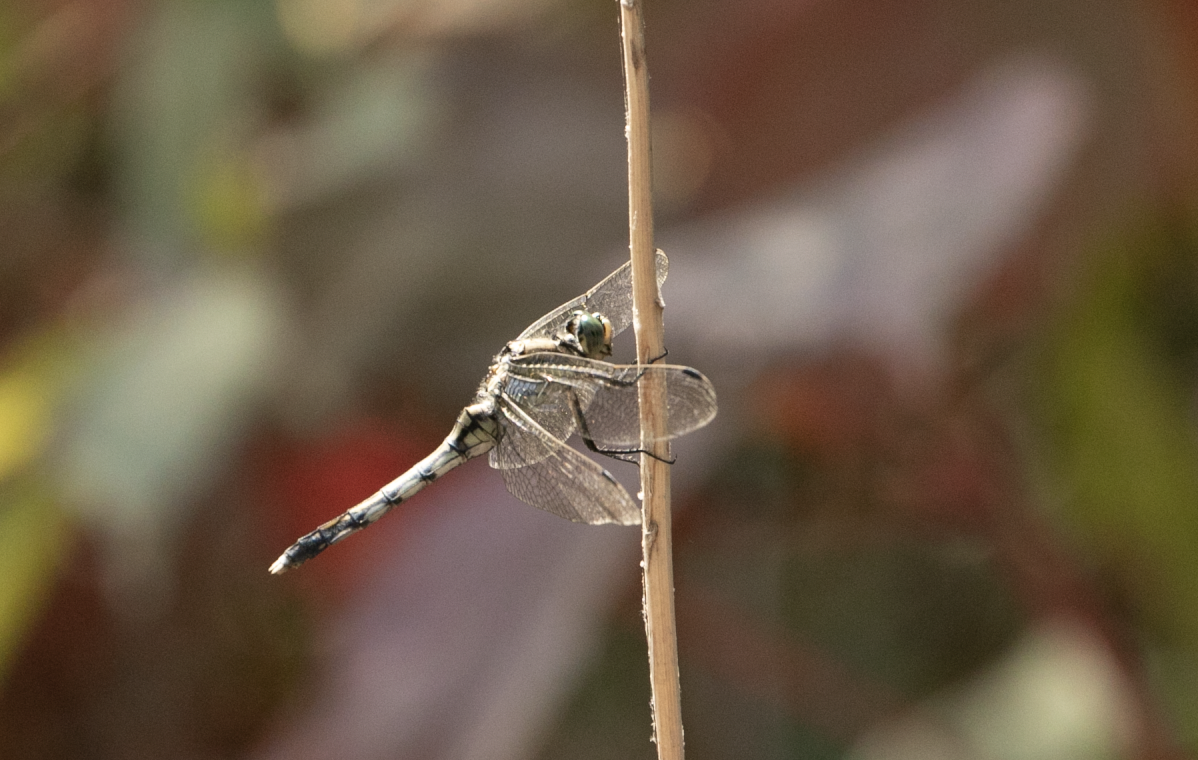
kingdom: Animalia
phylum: Arthropoda
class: Insecta
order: Odonata
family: Libellulidae
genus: Orthetrum
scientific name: Orthetrum albistylum
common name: White-tailed skimmer
